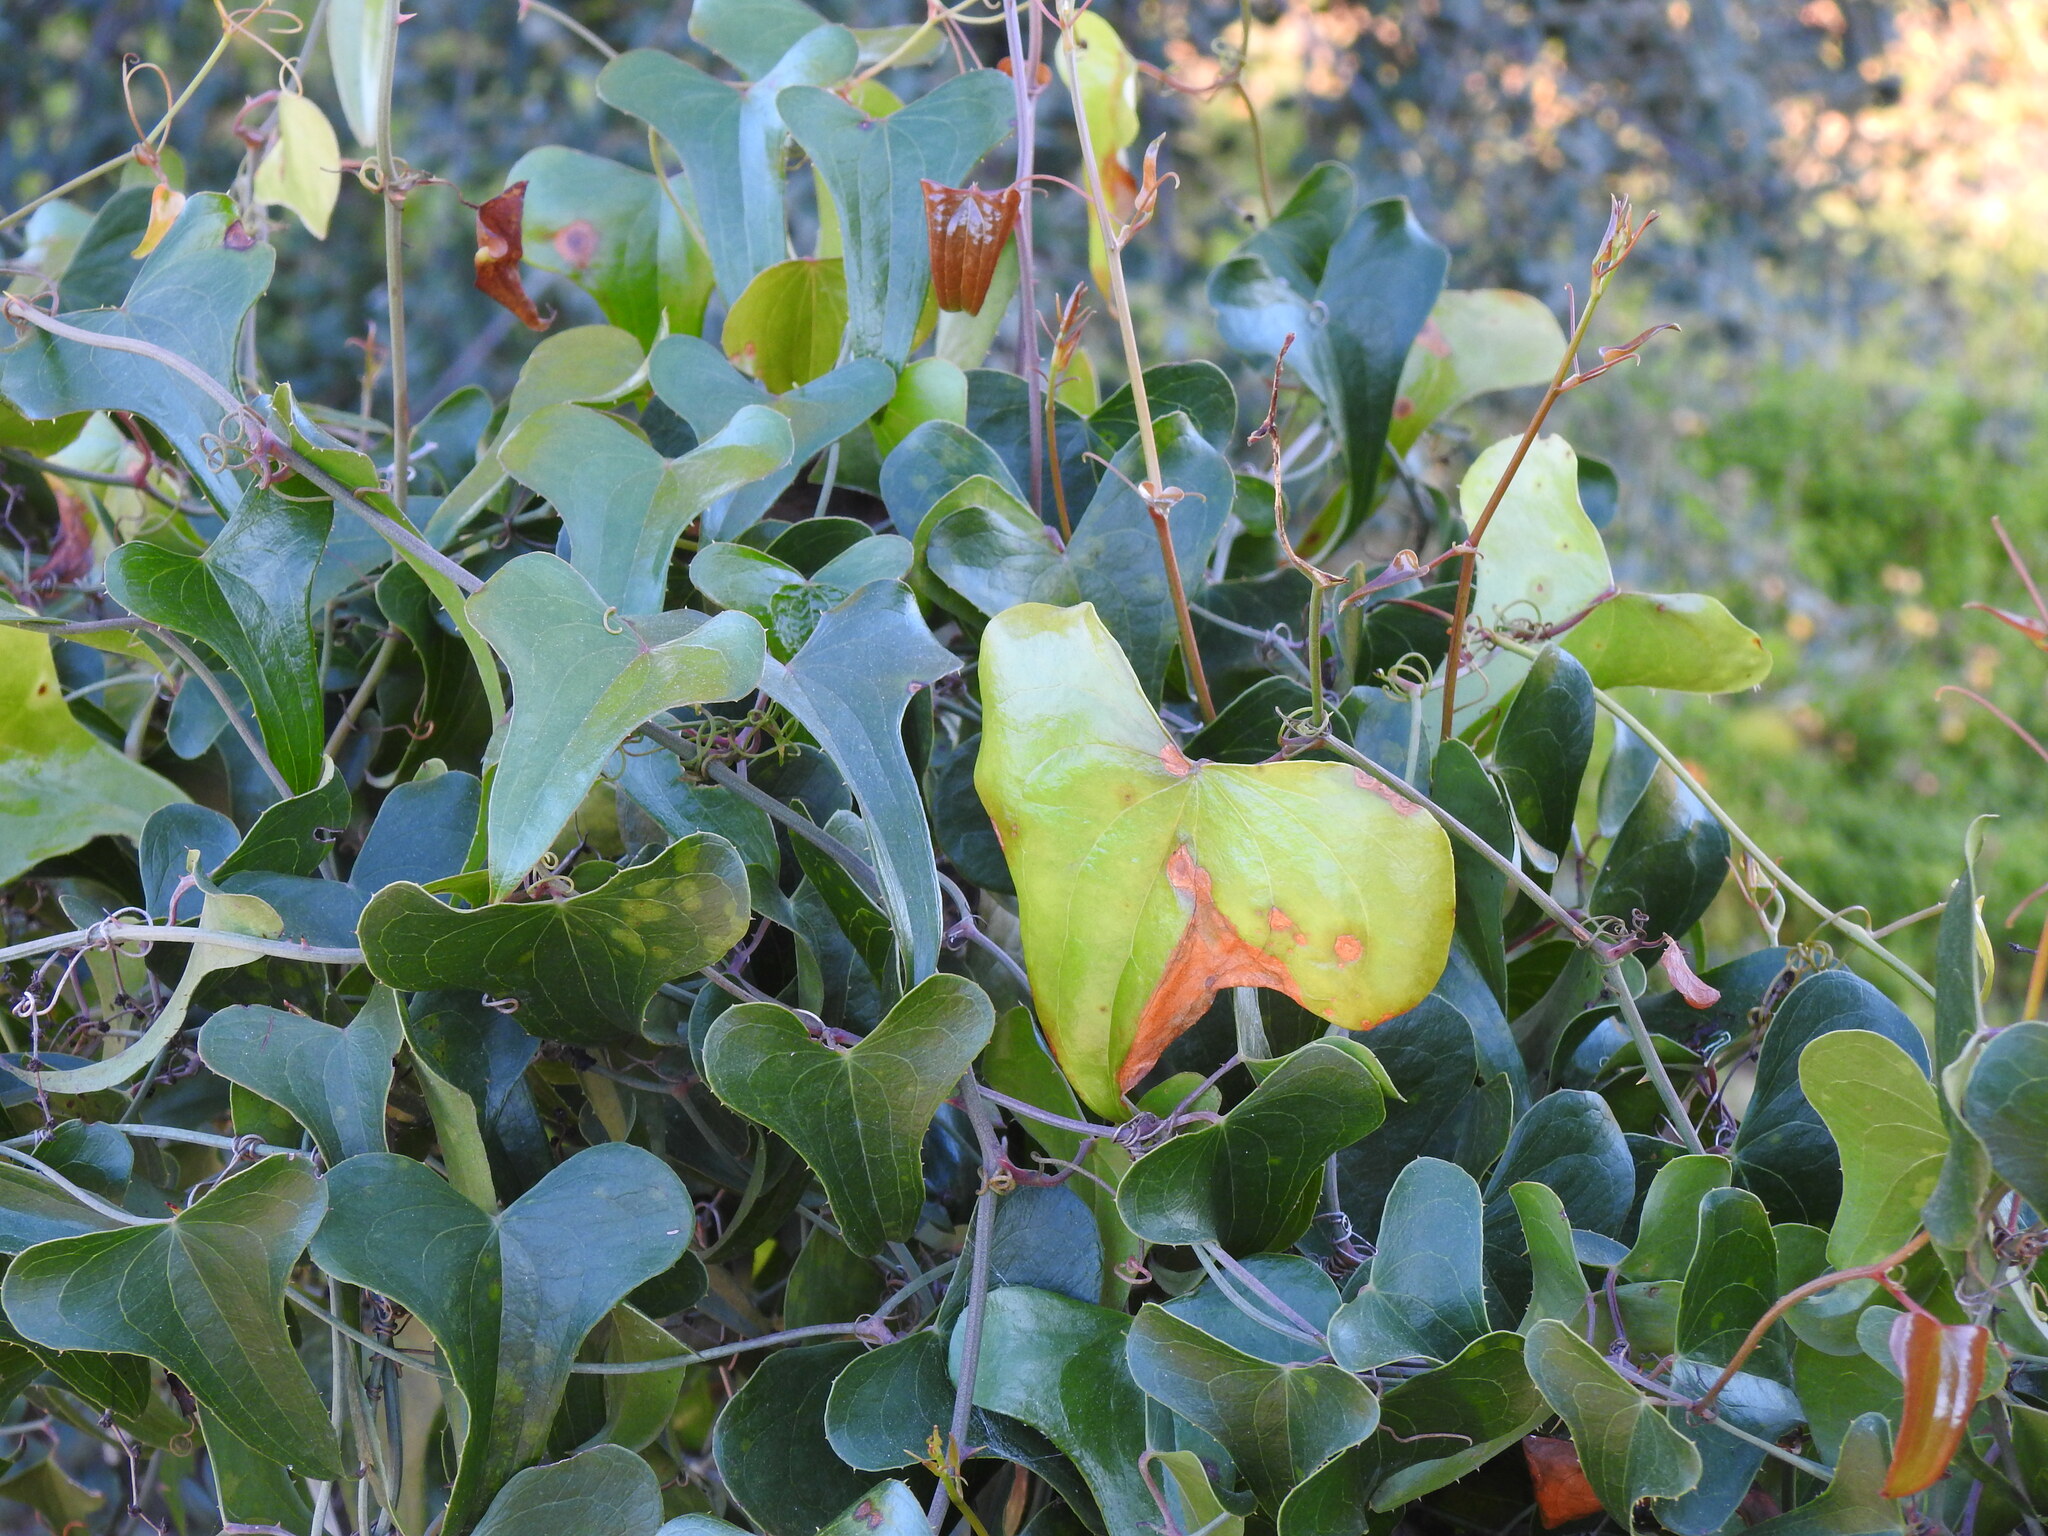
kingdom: Plantae
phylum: Tracheophyta
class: Liliopsida
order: Liliales
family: Smilacaceae
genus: Smilax
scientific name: Smilax aspera
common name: Common smilax
